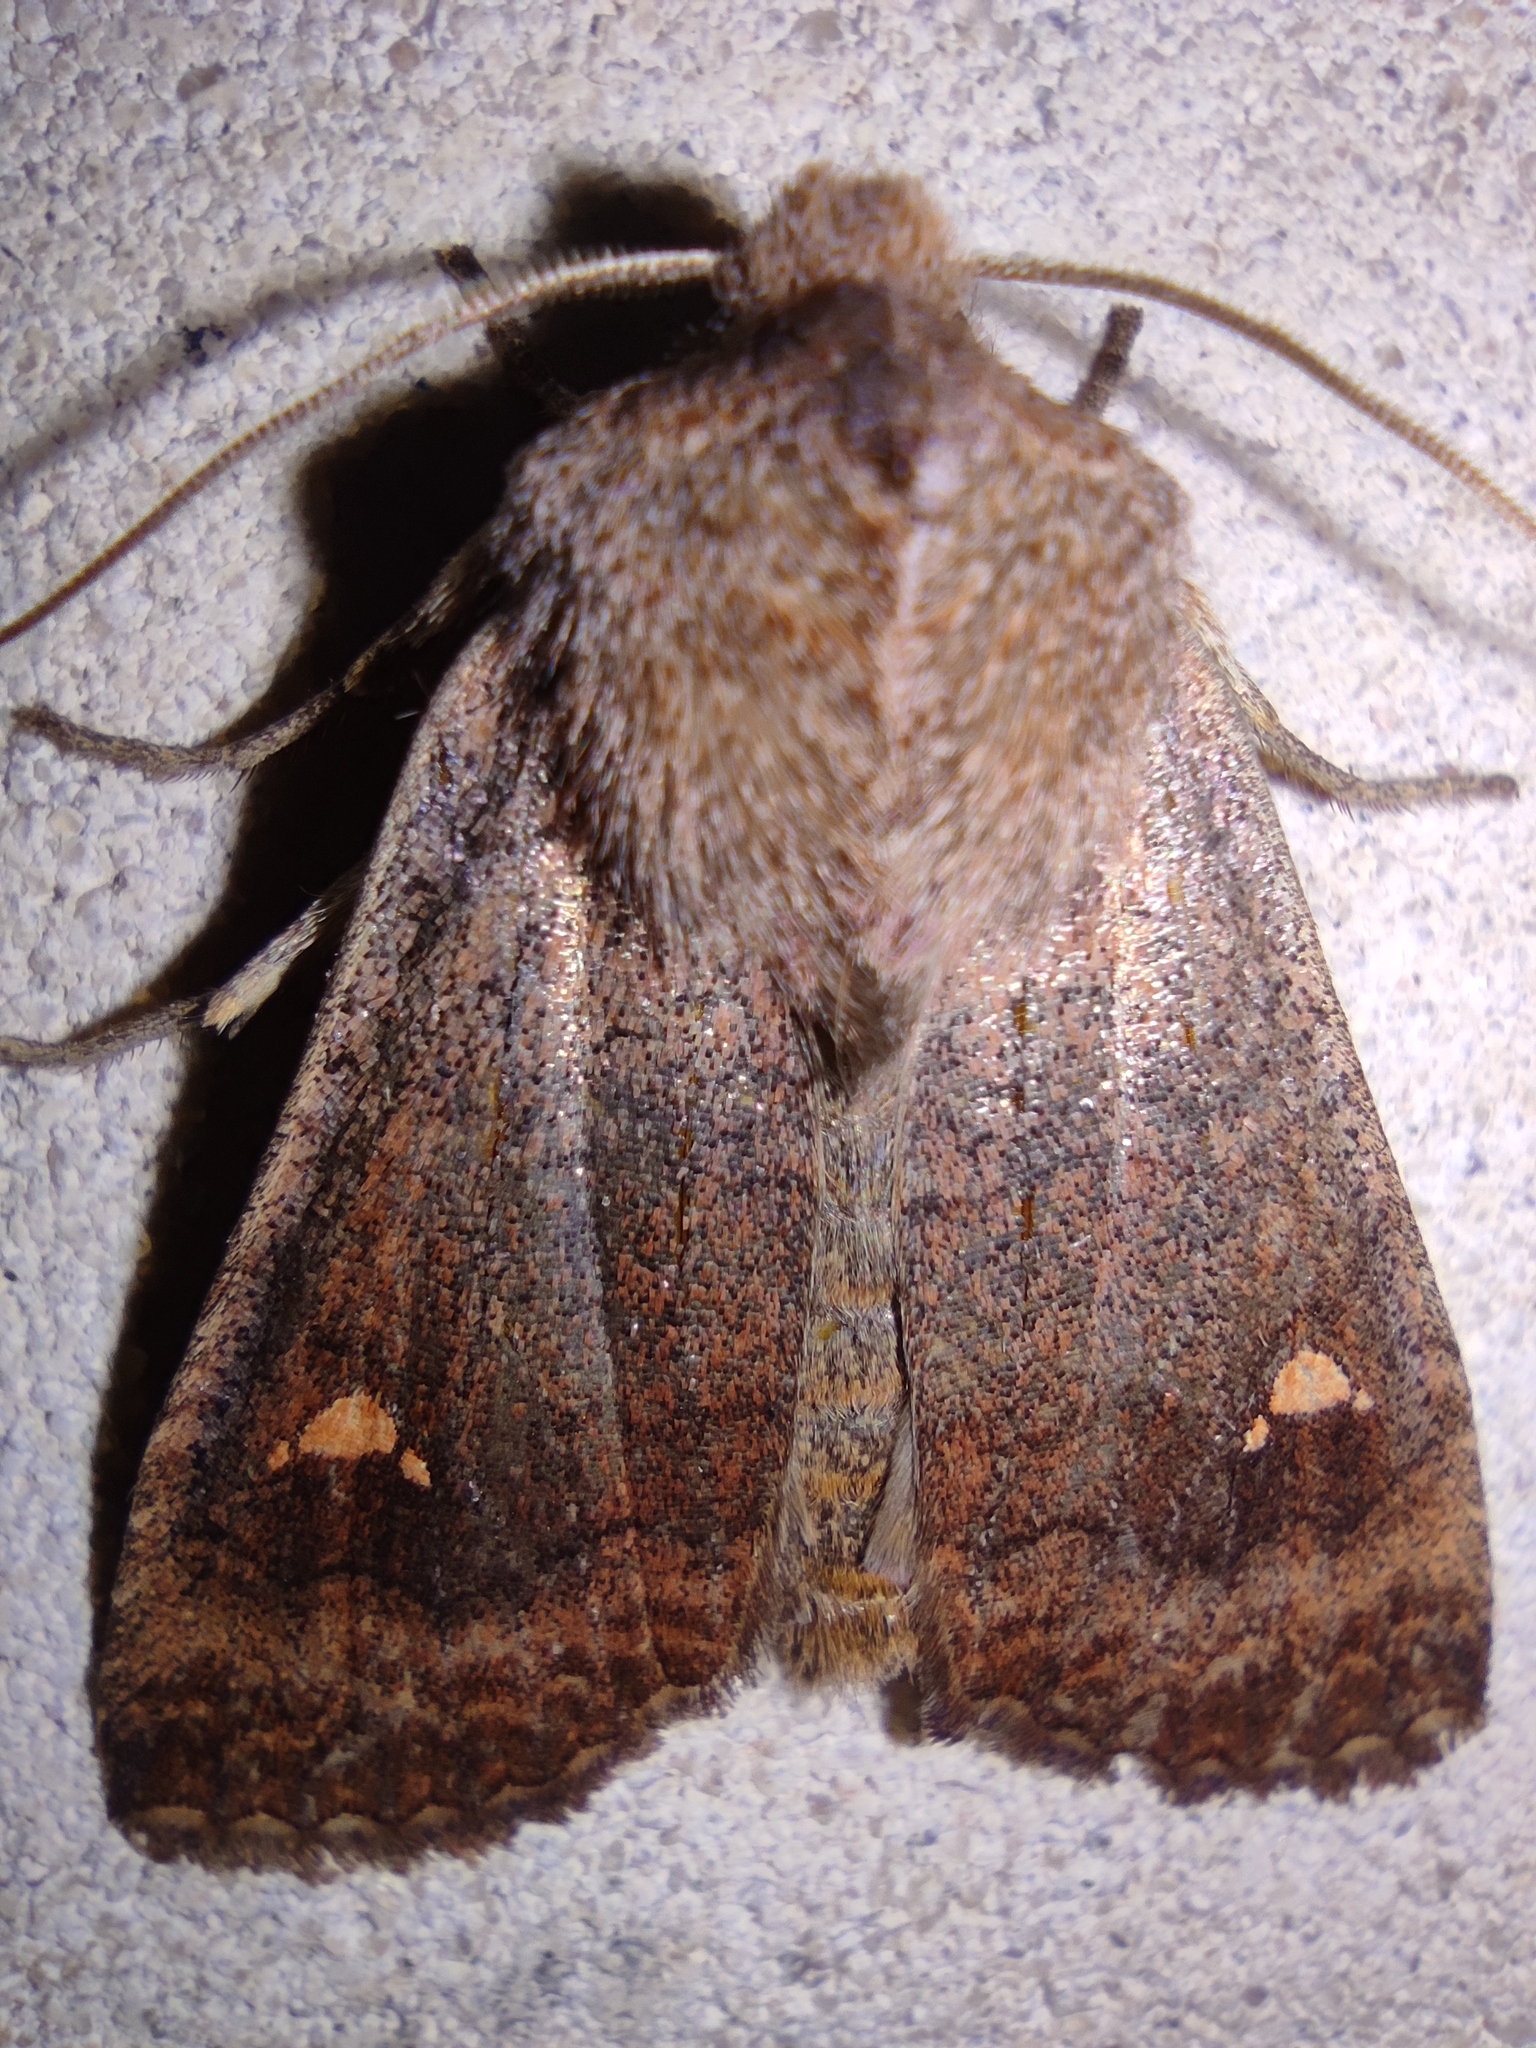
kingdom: Animalia
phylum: Arthropoda
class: Insecta
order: Lepidoptera
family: Noctuidae
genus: Eupsilia
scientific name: Eupsilia transversa
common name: Satellite
